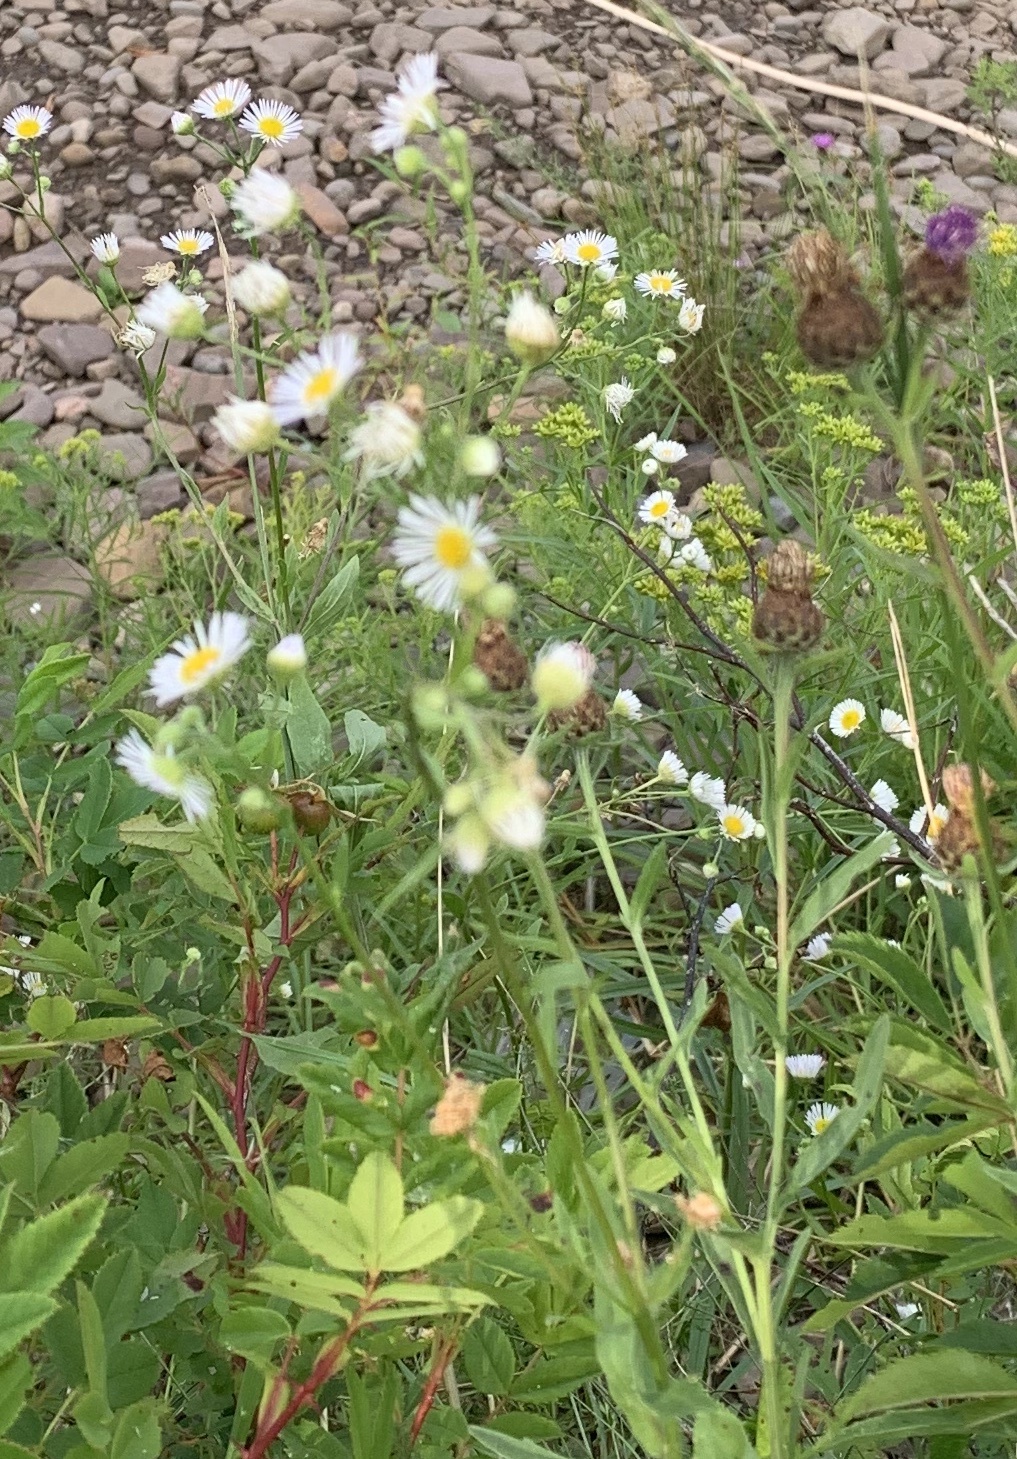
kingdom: Plantae
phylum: Tracheophyta
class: Magnoliopsida
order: Asterales
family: Asteraceae
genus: Erigeron
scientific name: Erigeron strigosus
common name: Common eastern fleabane
